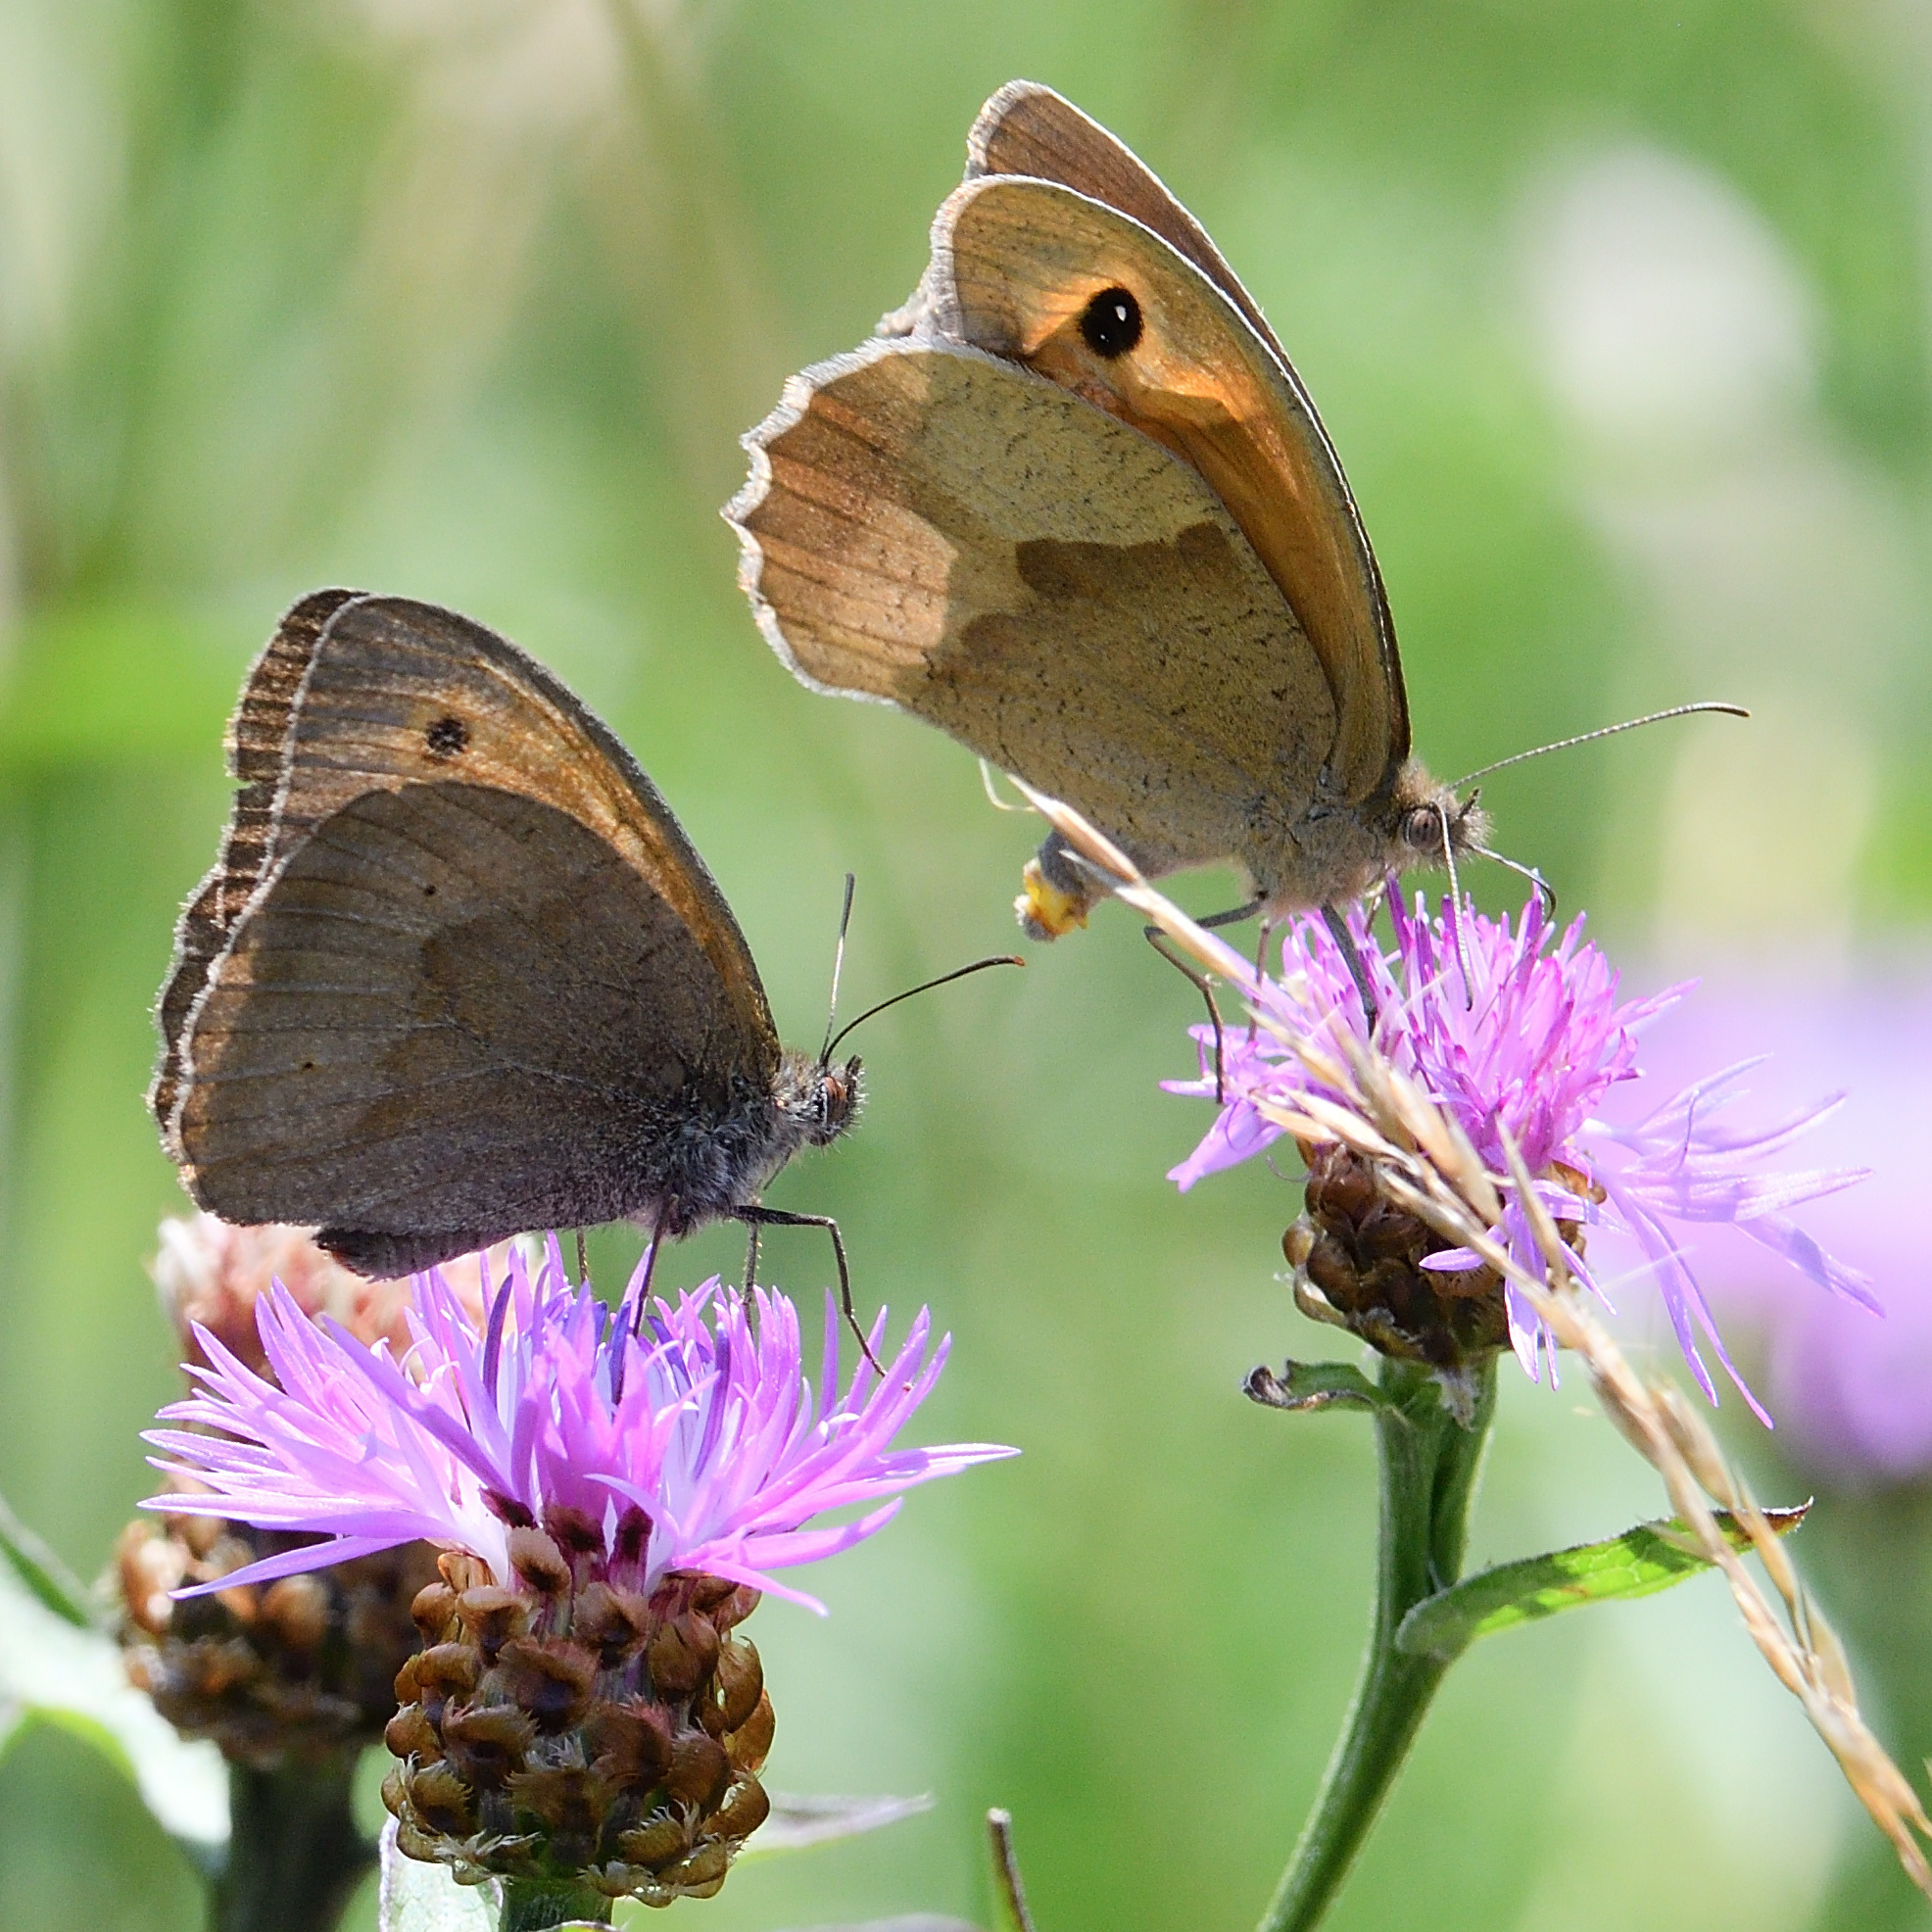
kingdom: Animalia
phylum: Arthropoda
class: Insecta
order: Lepidoptera
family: Nymphalidae
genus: Maniola
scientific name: Maniola jurtina
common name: Meadow brown
